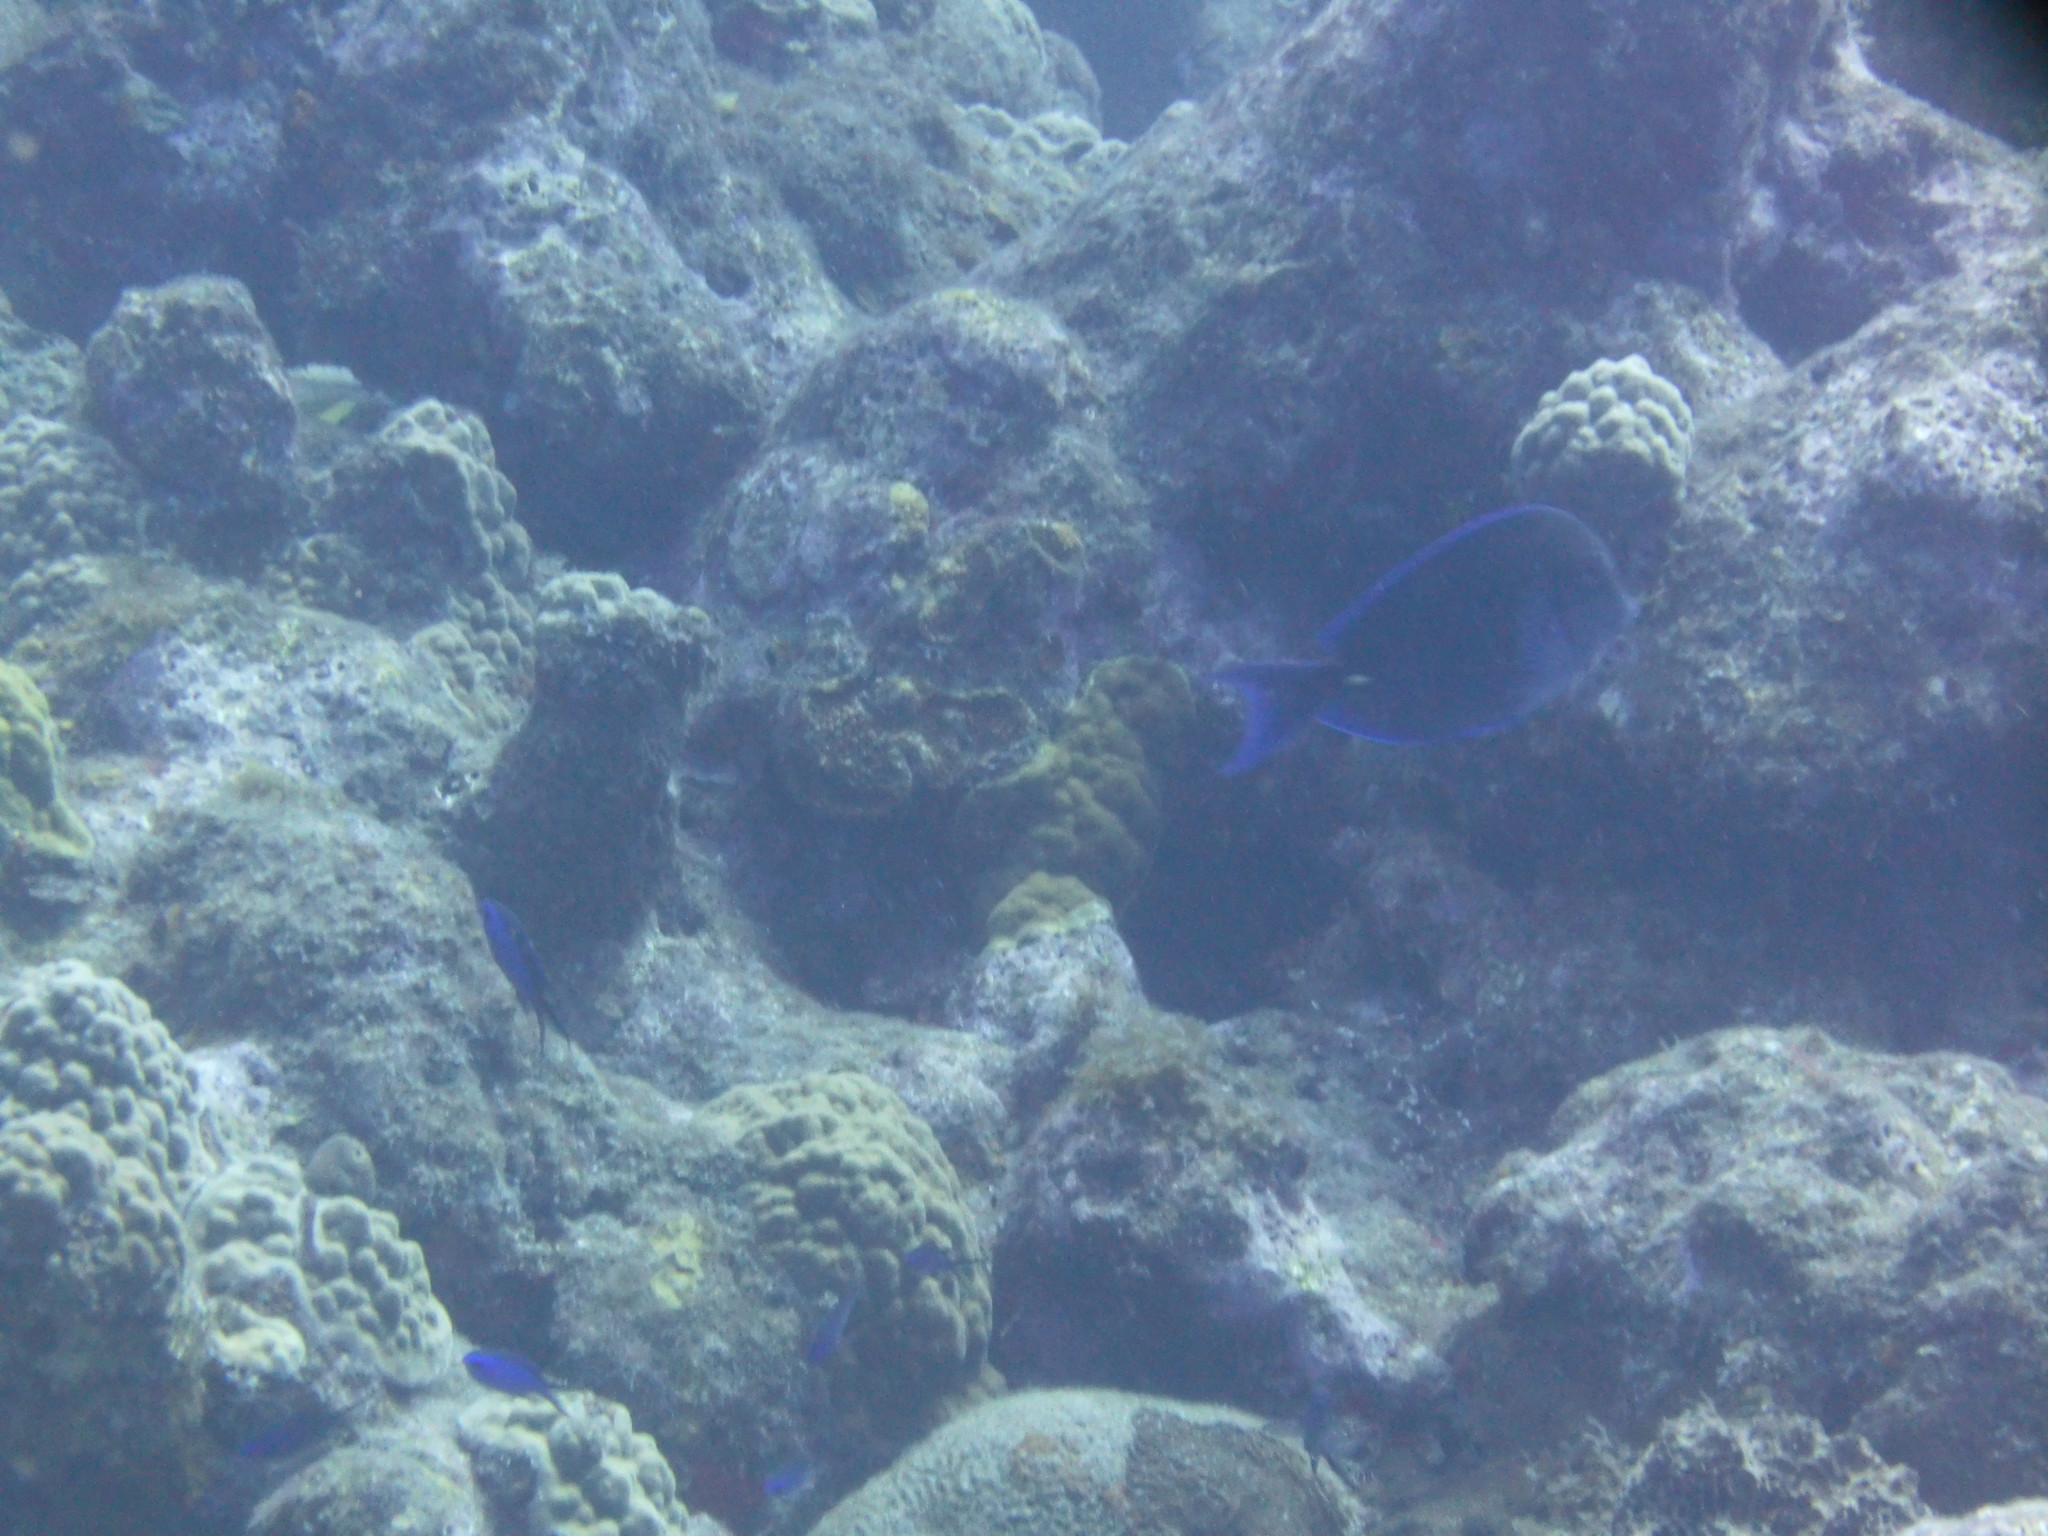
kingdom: Animalia
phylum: Chordata
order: Perciformes
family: Acanthuridae
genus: Acanthurus
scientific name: Acanthurus coeruleus
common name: Blue tang
